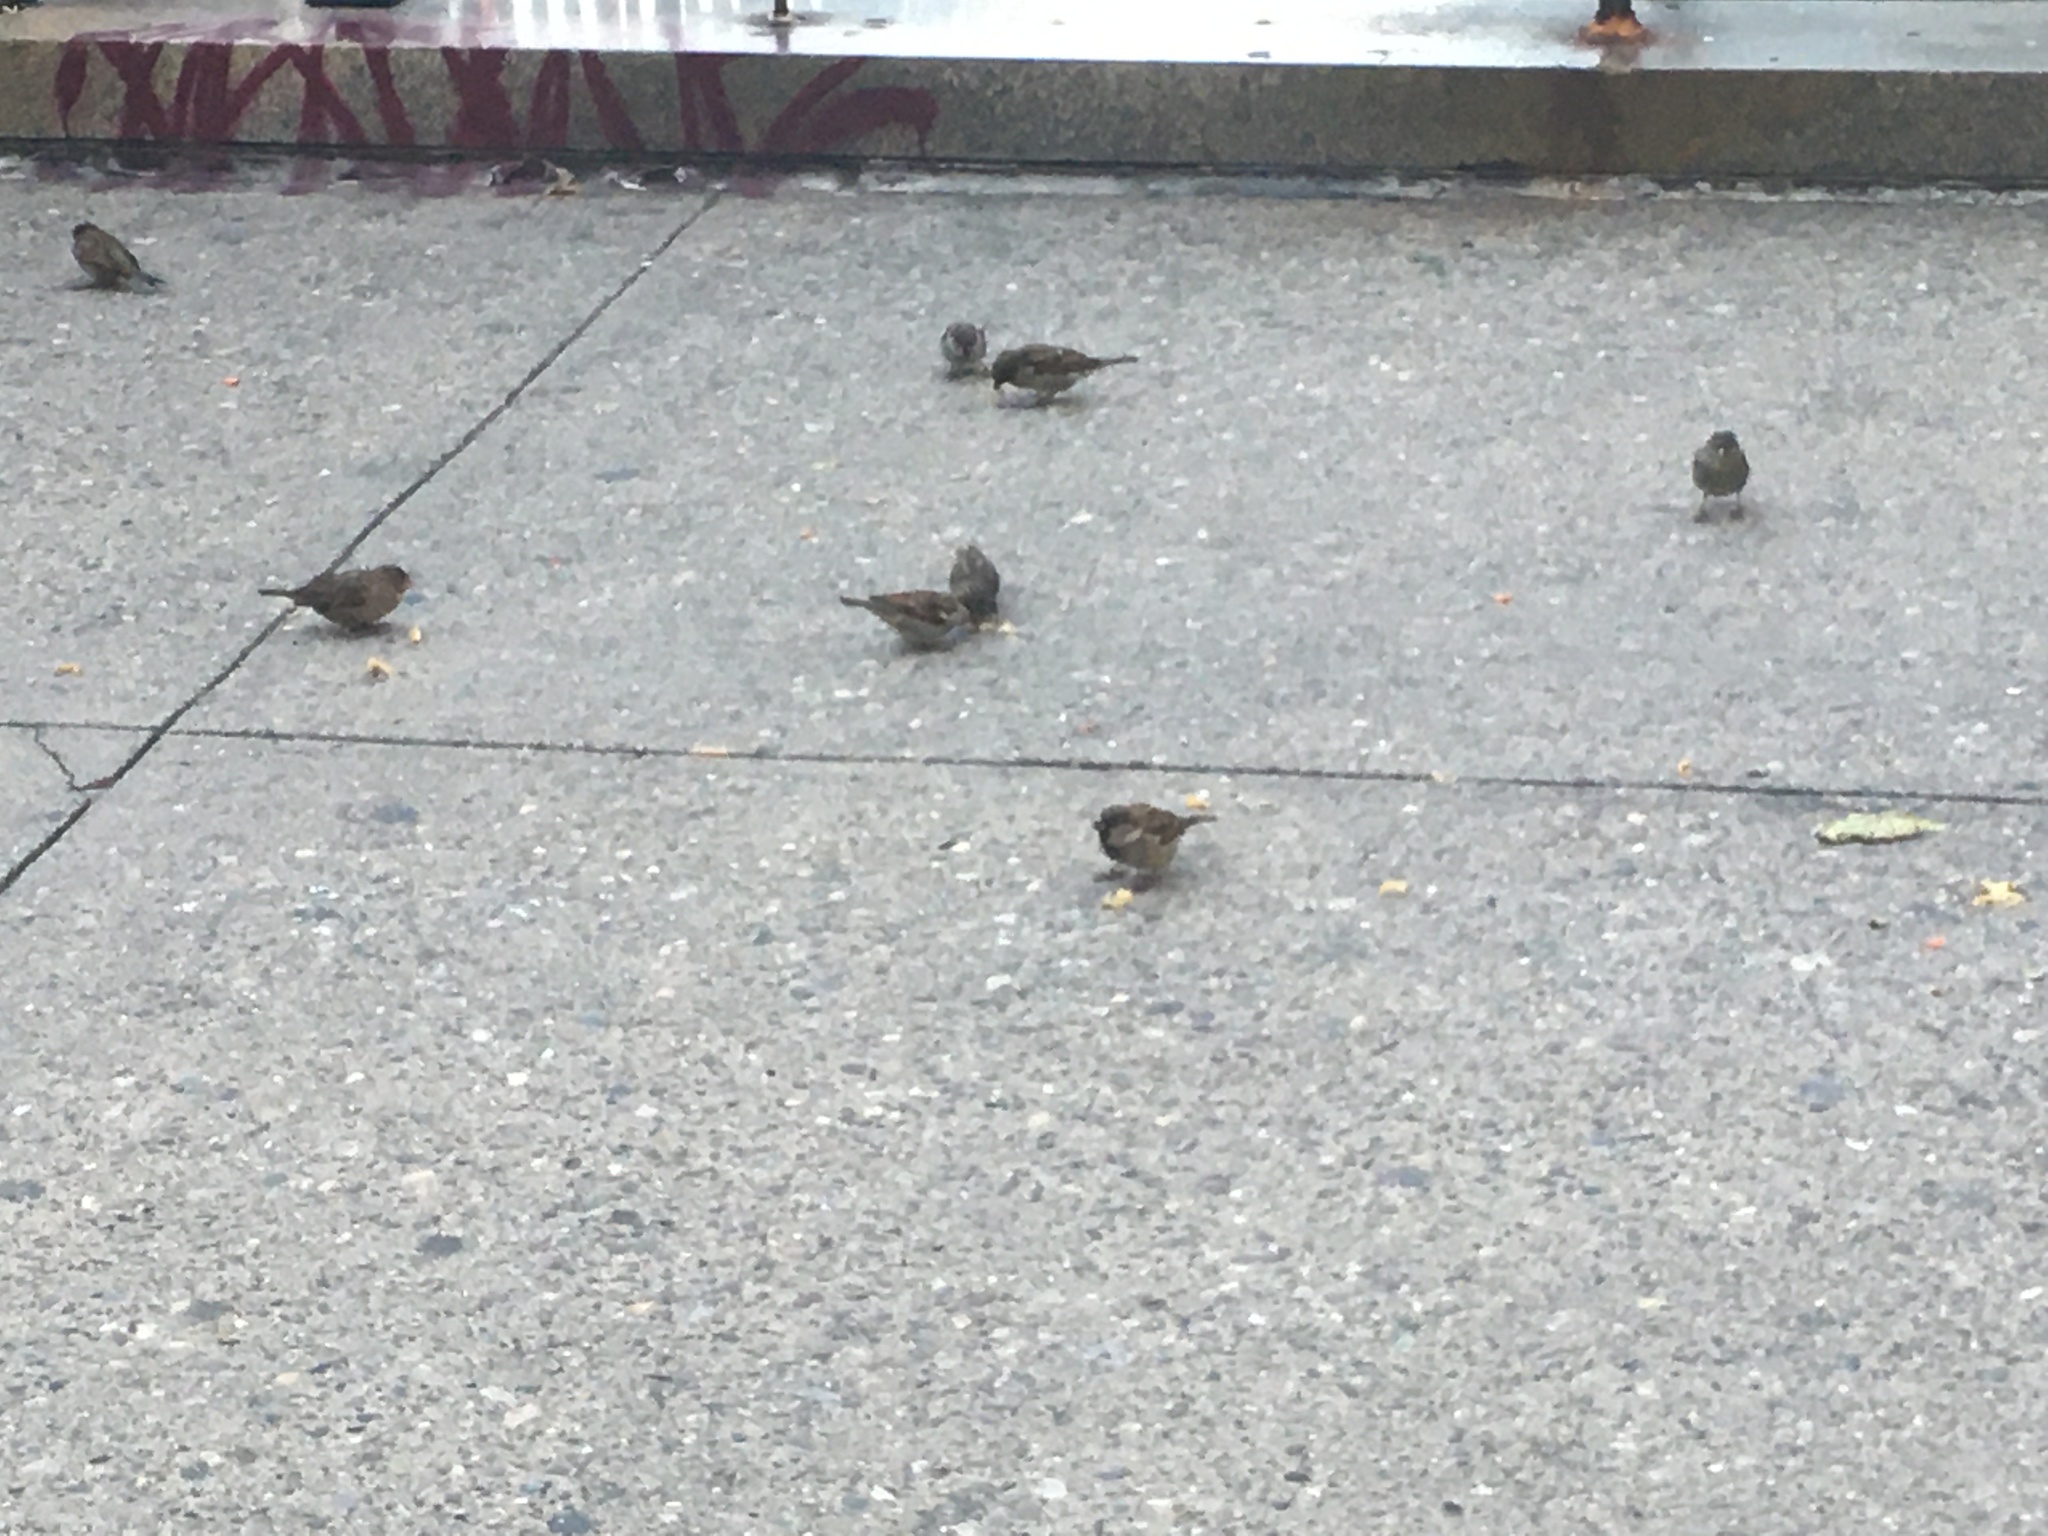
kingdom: Animalia
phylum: Chordata
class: Aves
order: Passeriformes
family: Passeridae
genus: Passer
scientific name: Passer domesticus
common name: House sparrow
